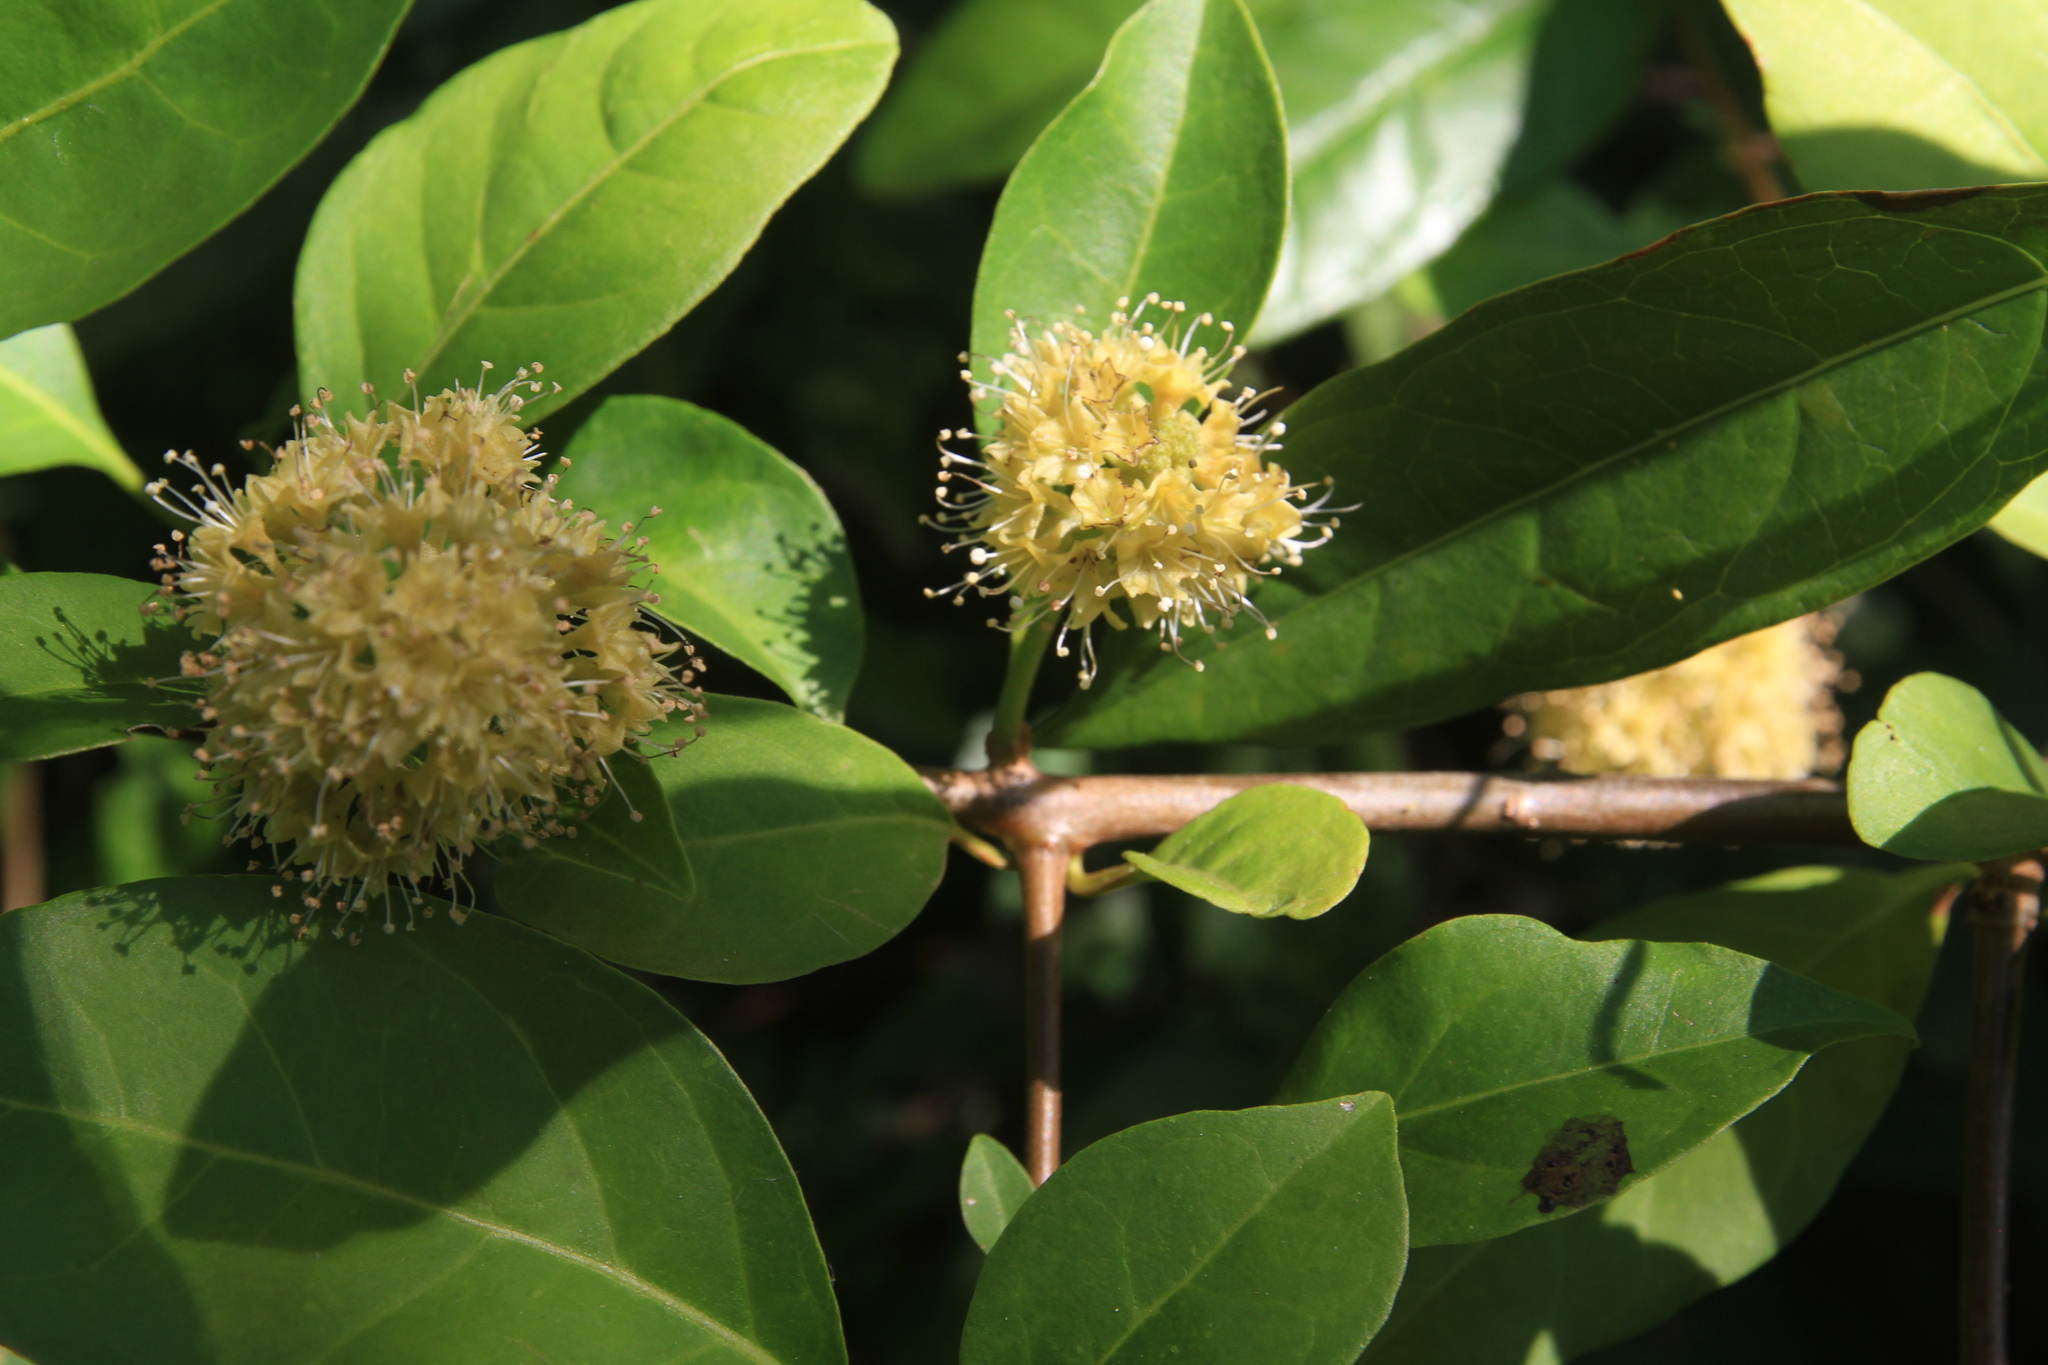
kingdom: Plantae
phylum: Tracheophyta
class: Magnoliopsida
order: Caryophyllales
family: Nyctaginaceae
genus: Pisonia
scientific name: Pisonia aculeata
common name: Cockspur vine
